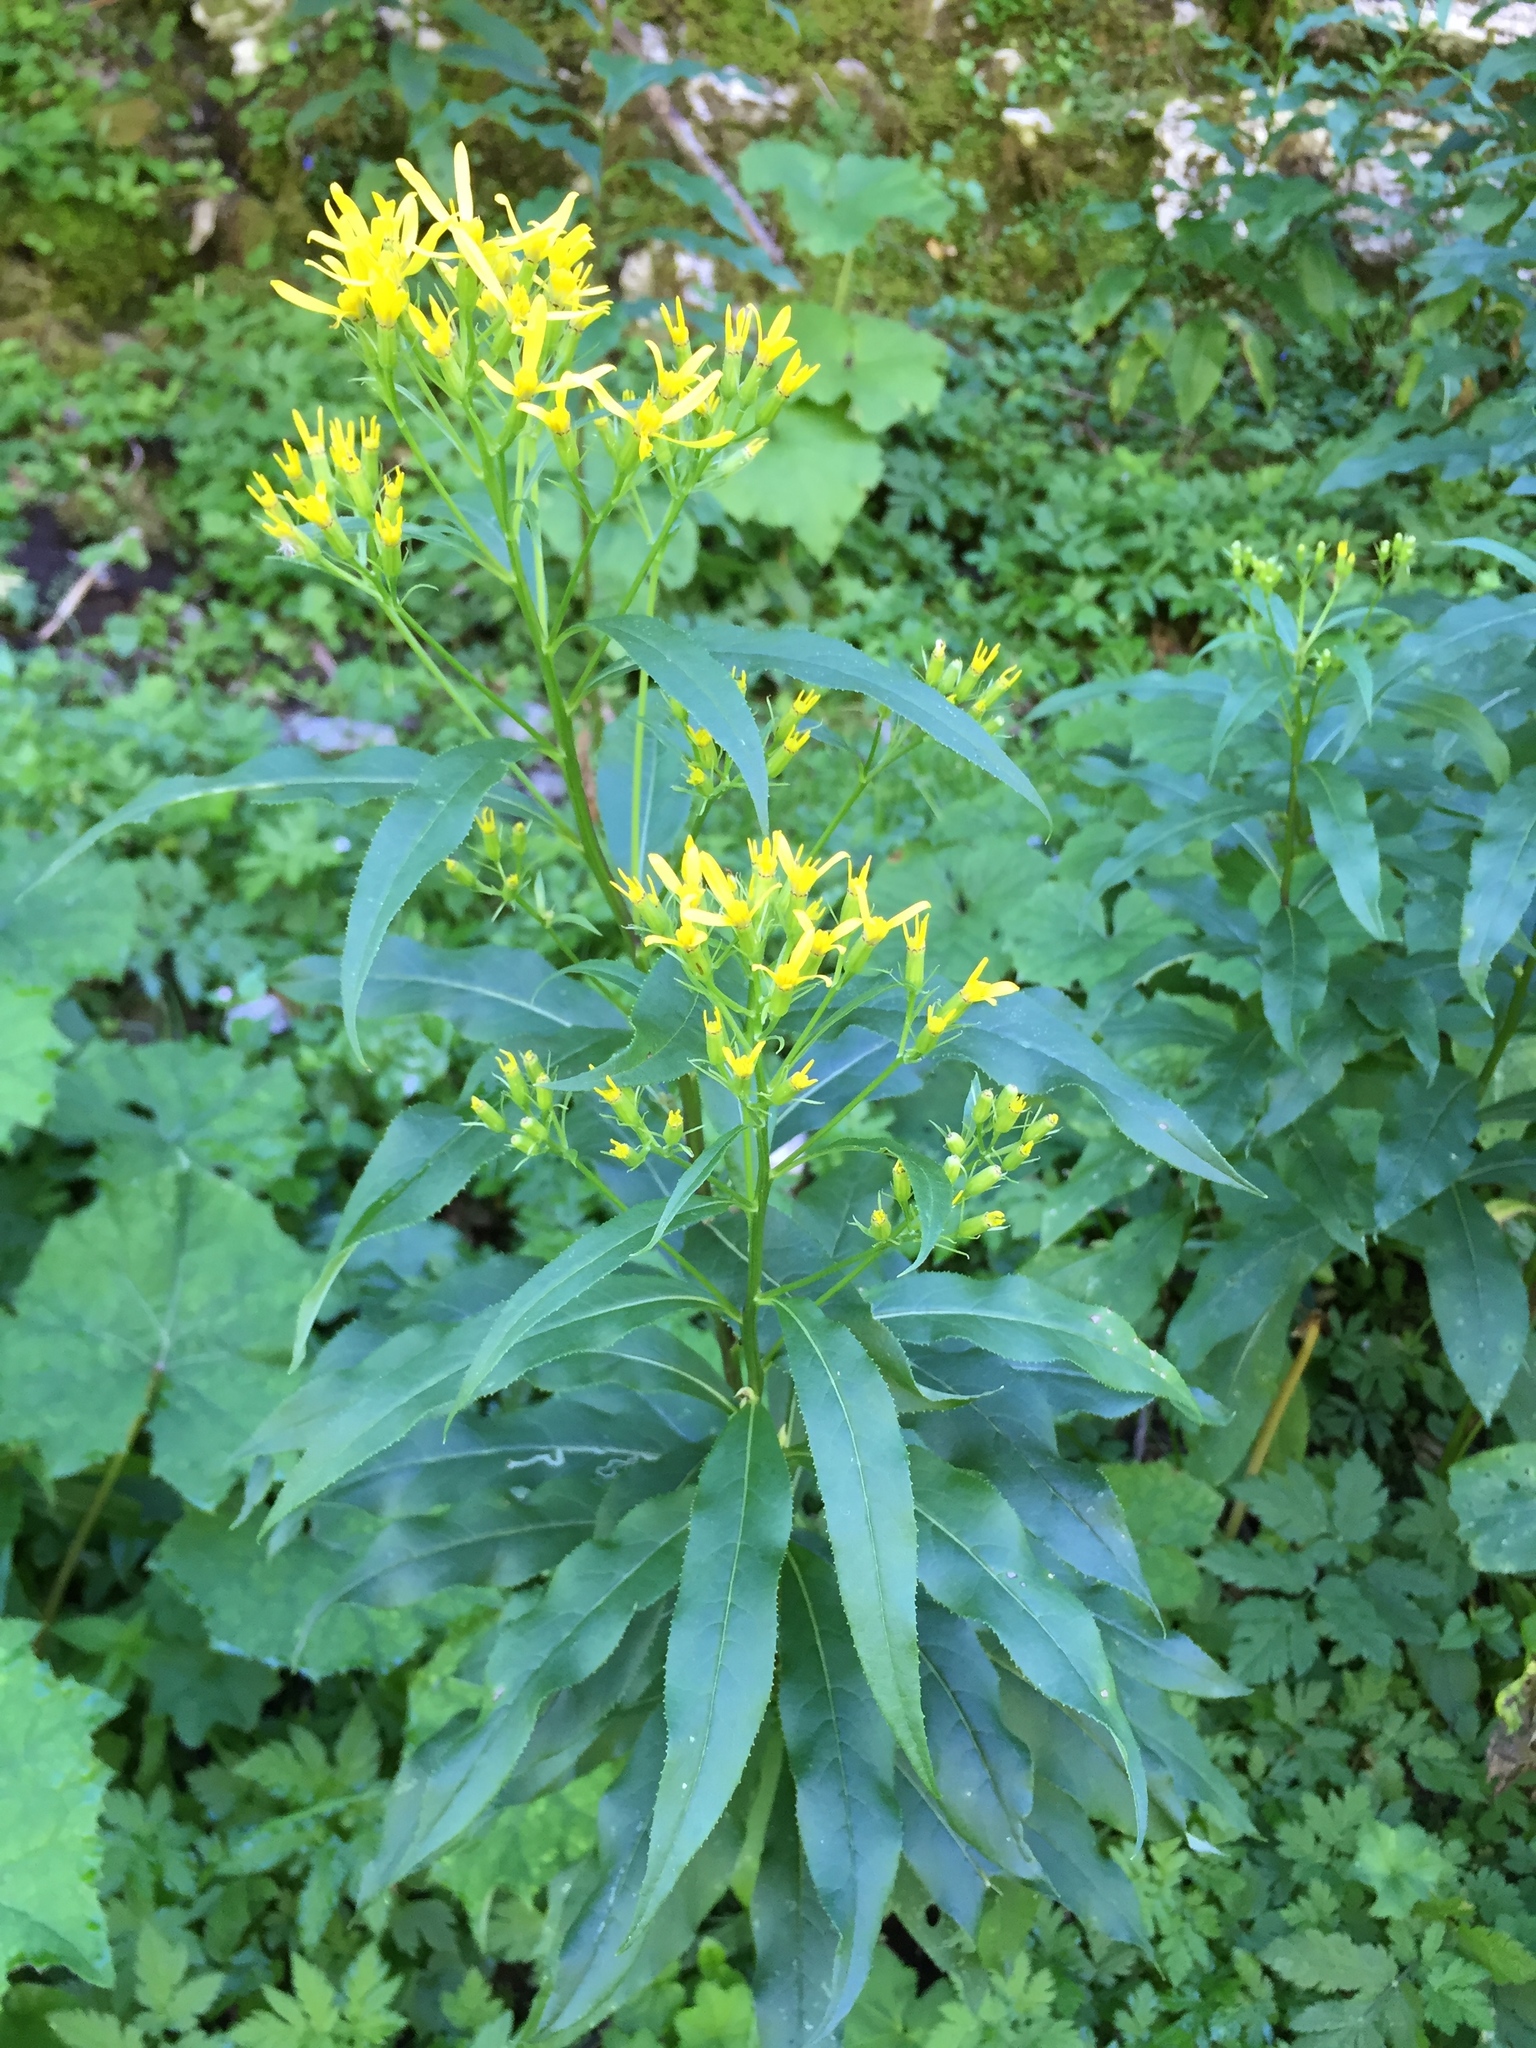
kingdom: Plantae
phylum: Tracheophyta
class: Magnoliopsida
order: Asterales
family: Asteraceae
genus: Senecio
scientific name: Senecio ovatus
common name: Wood ragwort
